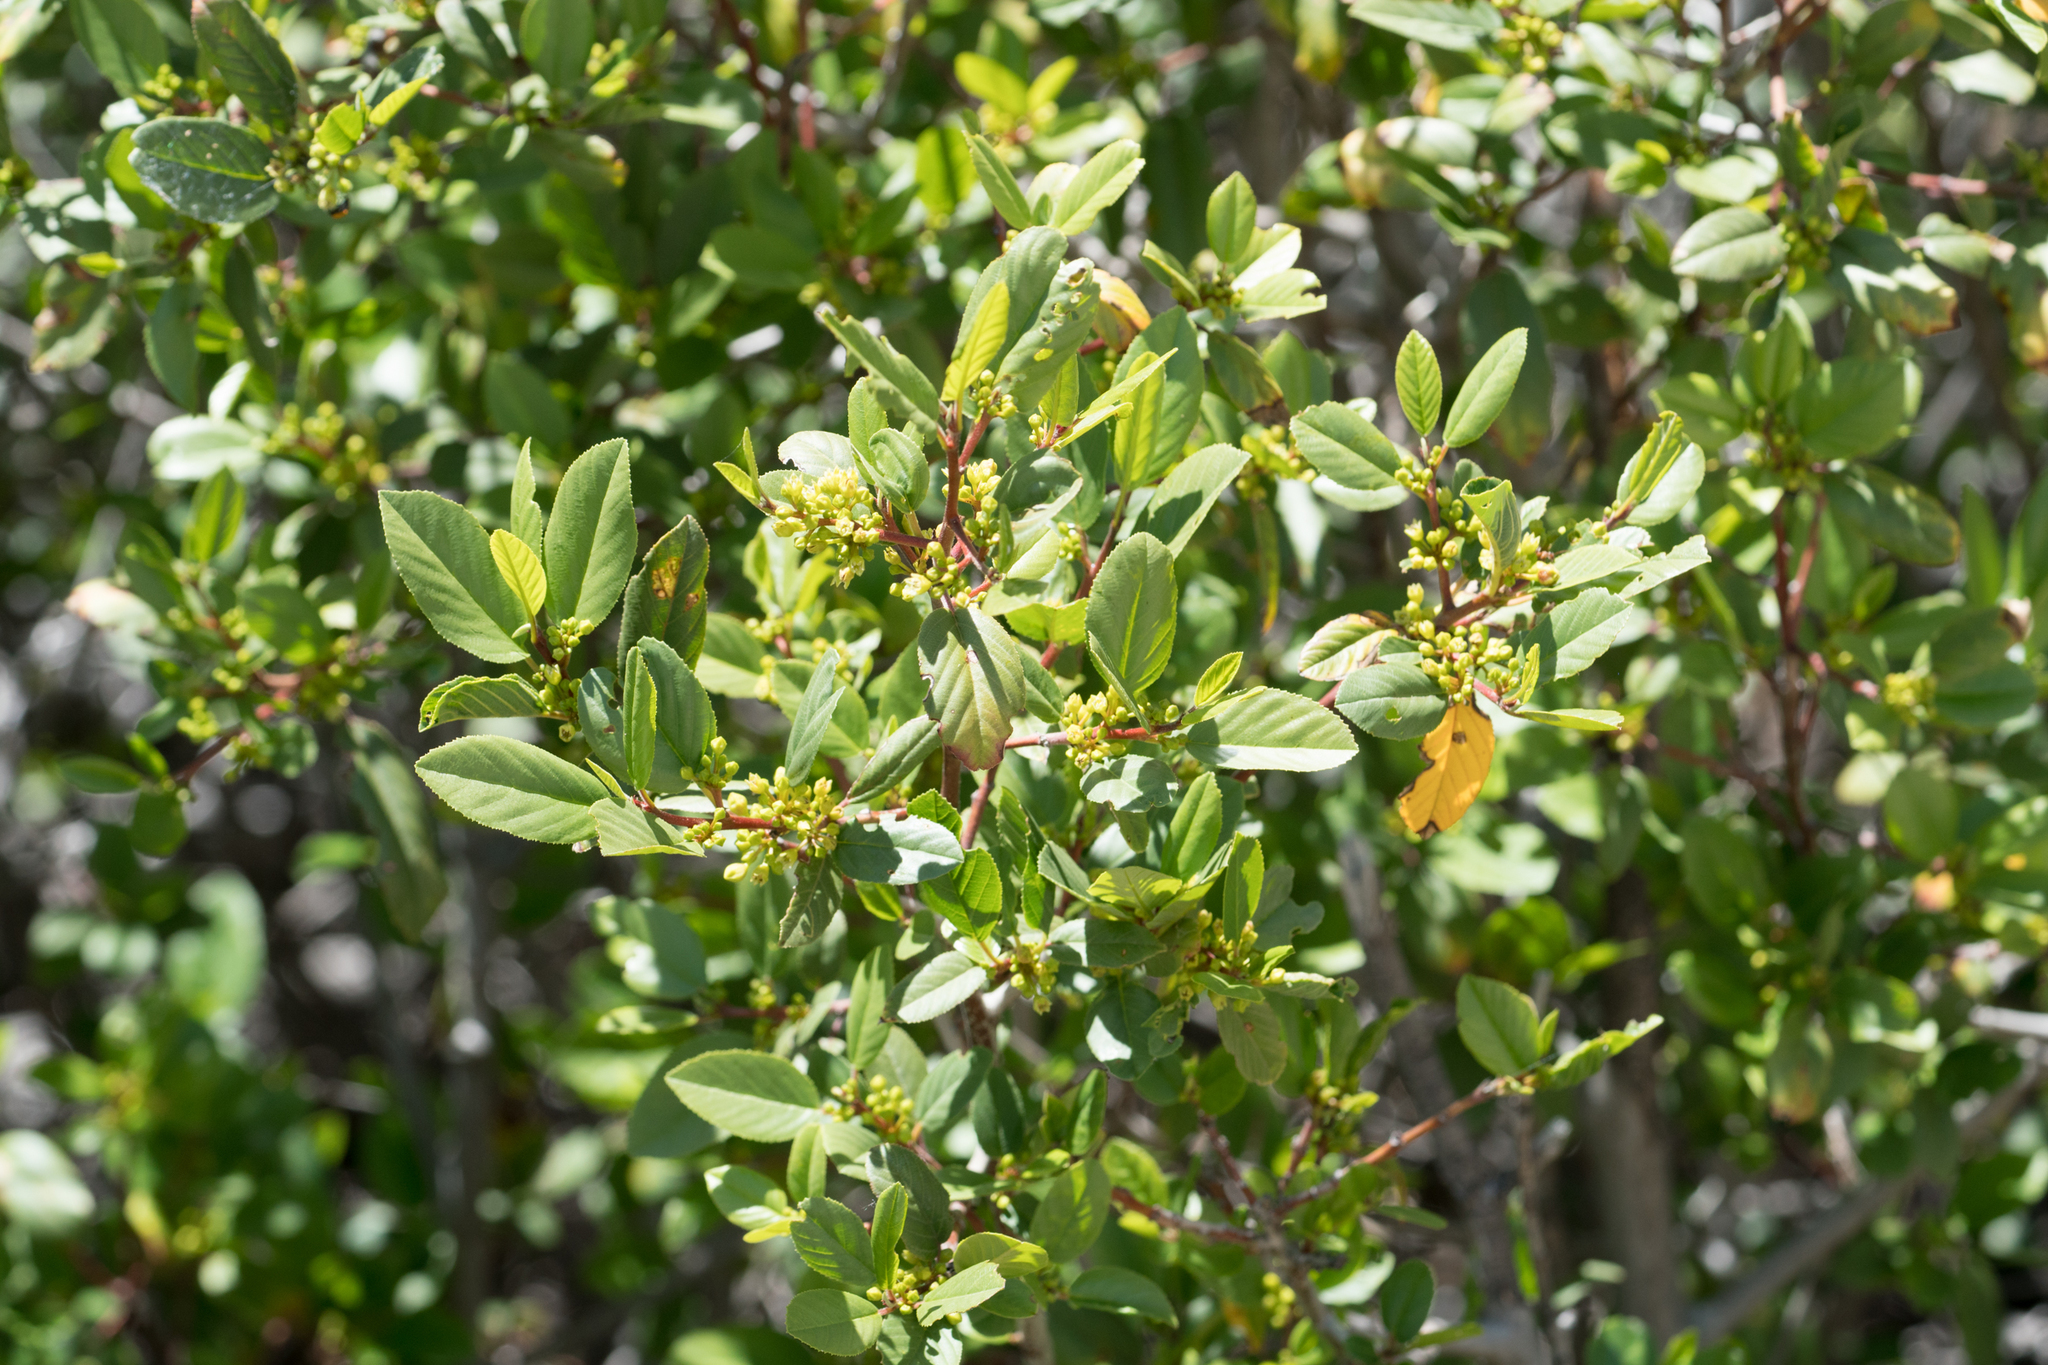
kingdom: Plantae
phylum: Tracheophyta
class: Magnoliopsida
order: Rosales
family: Rhamnaceae
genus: Frangula
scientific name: Frangula californica
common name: California buckthorn
